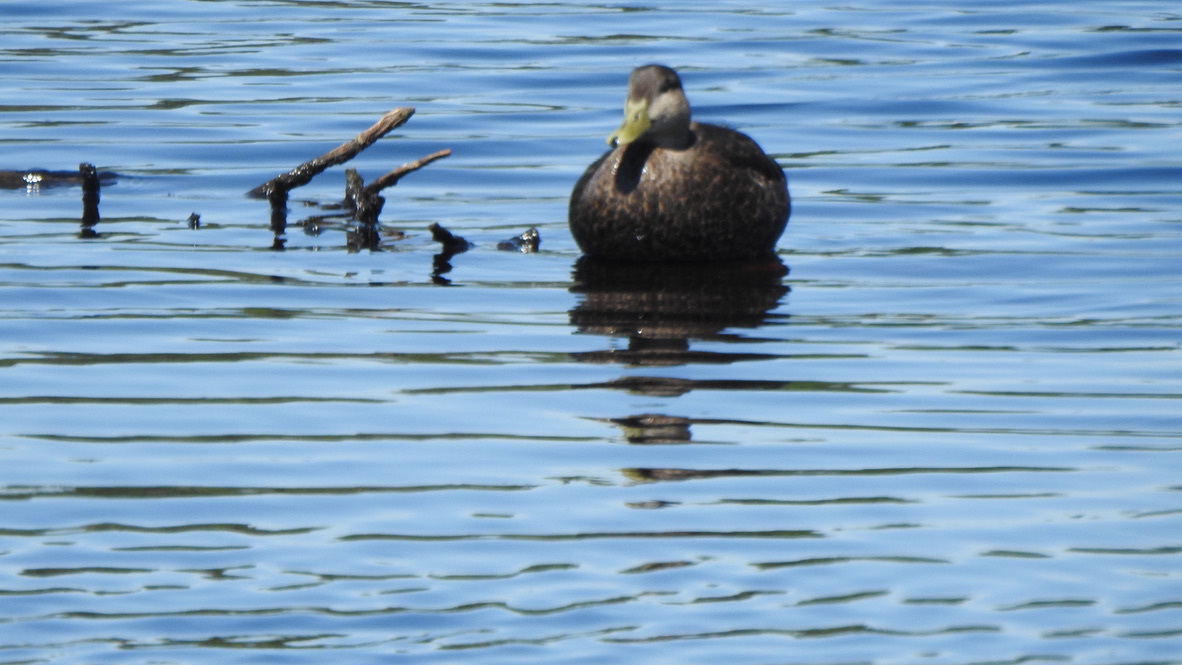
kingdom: Animalia
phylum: Chordata
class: Aves
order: Anseriformes
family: Anatidae
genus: Anas
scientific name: Anas rubripes
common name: American black duck
